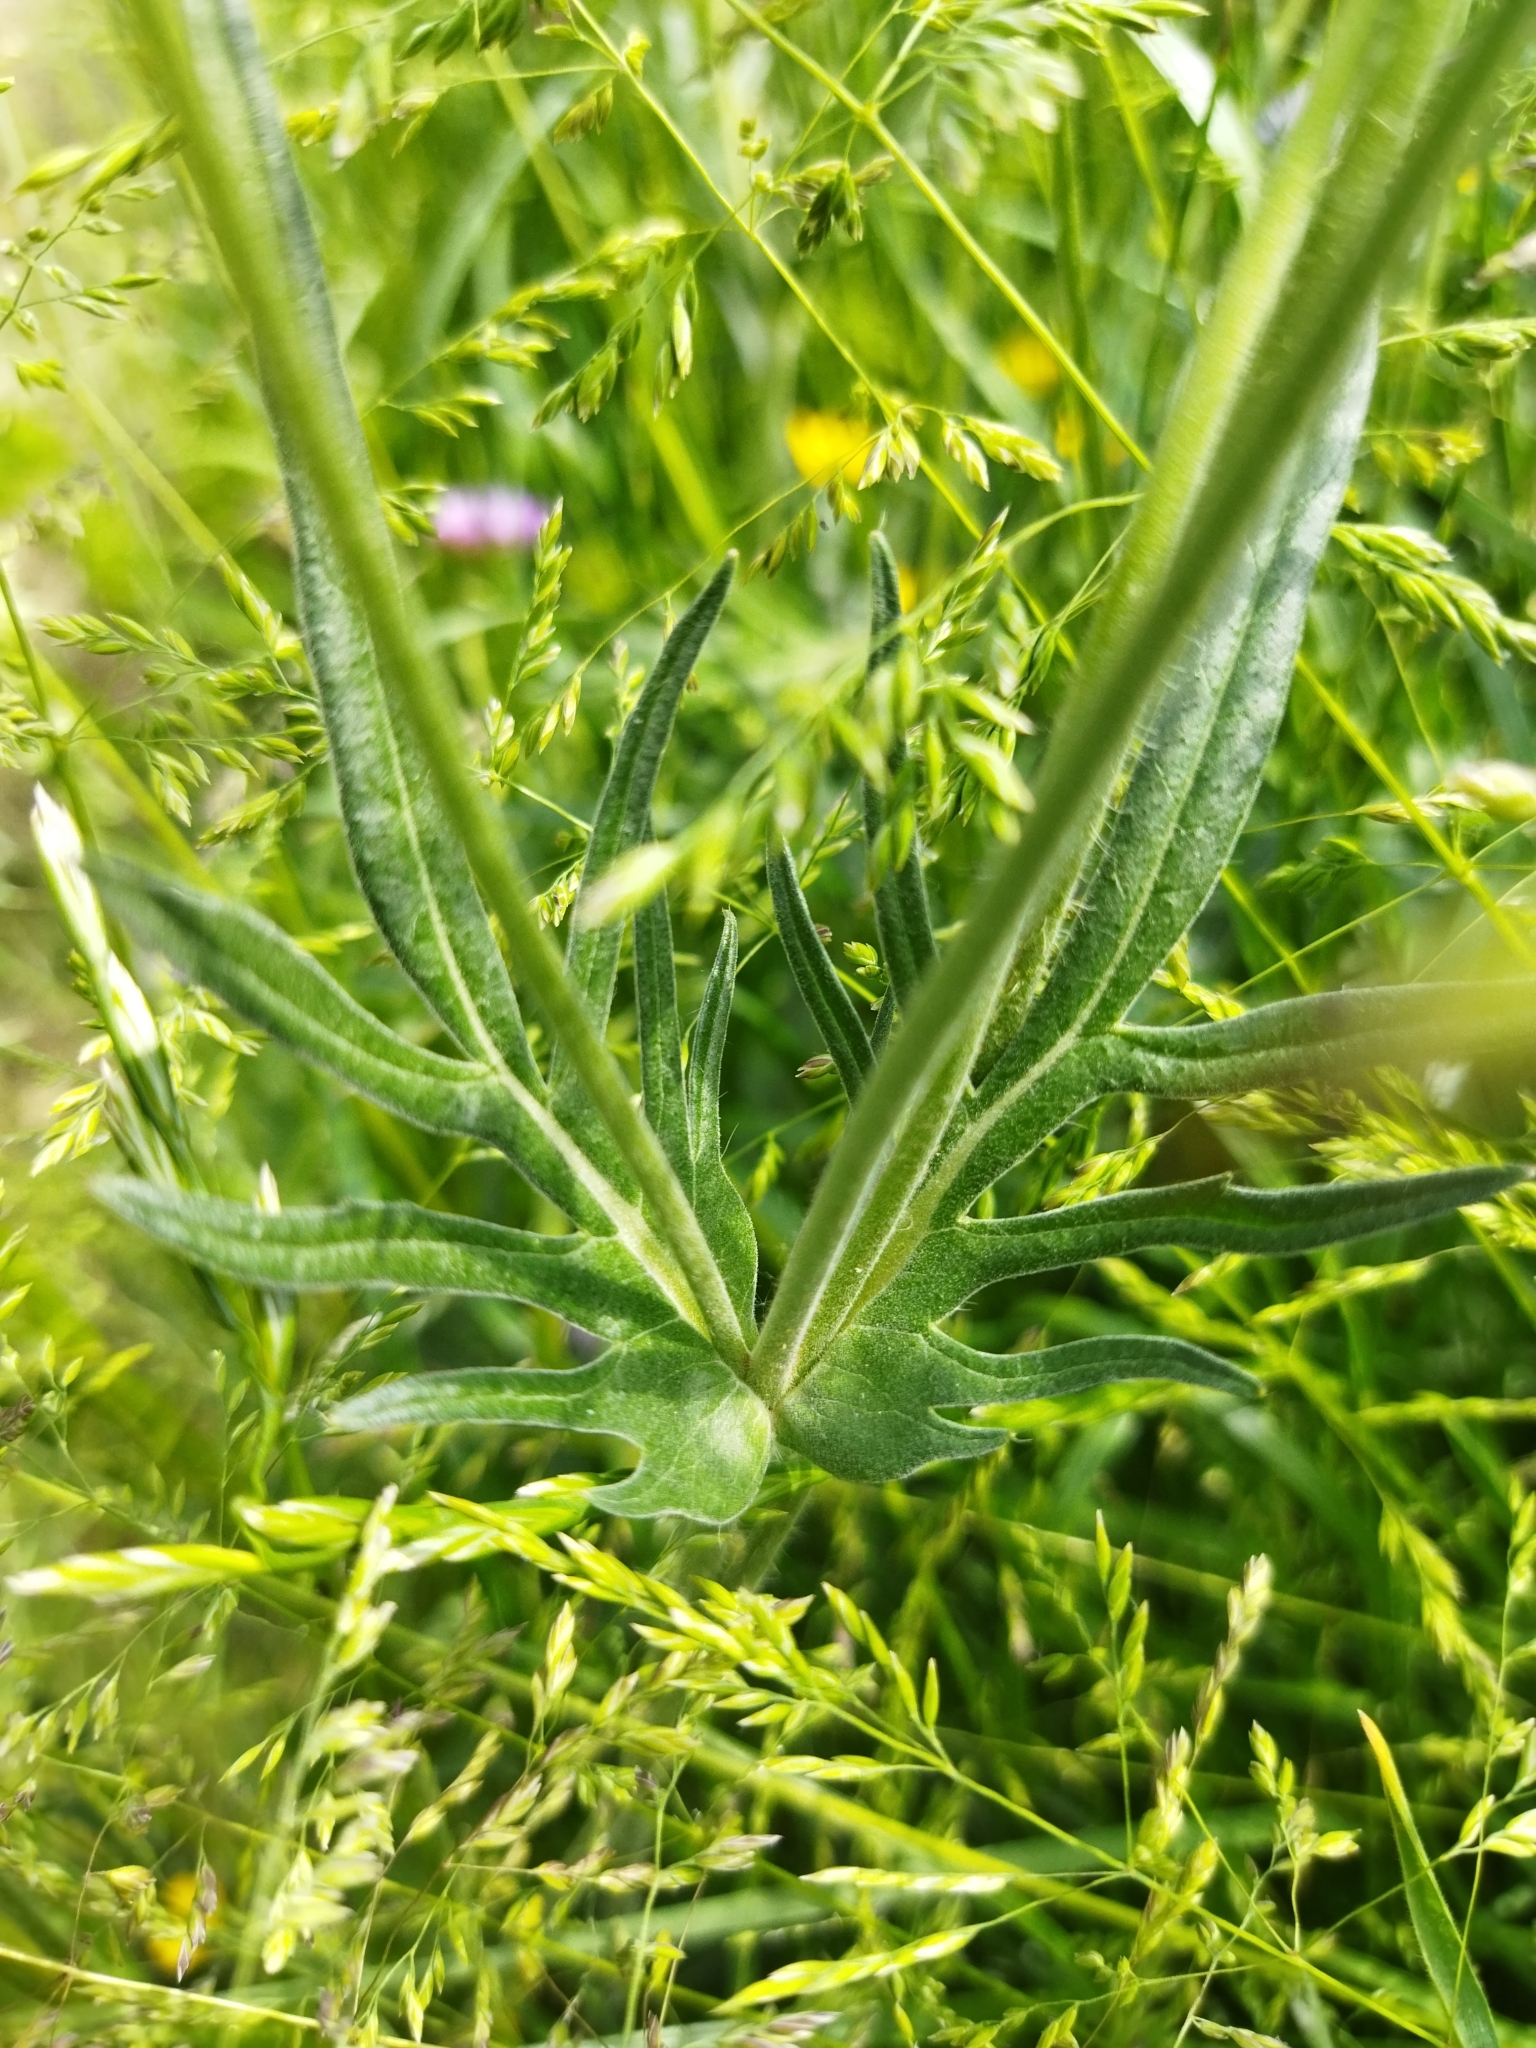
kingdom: Plantae
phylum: Tracheophyta
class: Magnoliopsida
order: Dipsacales
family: Caprifoliaceae
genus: Knautia
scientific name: Knautia arvensis
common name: Field scabiosa
